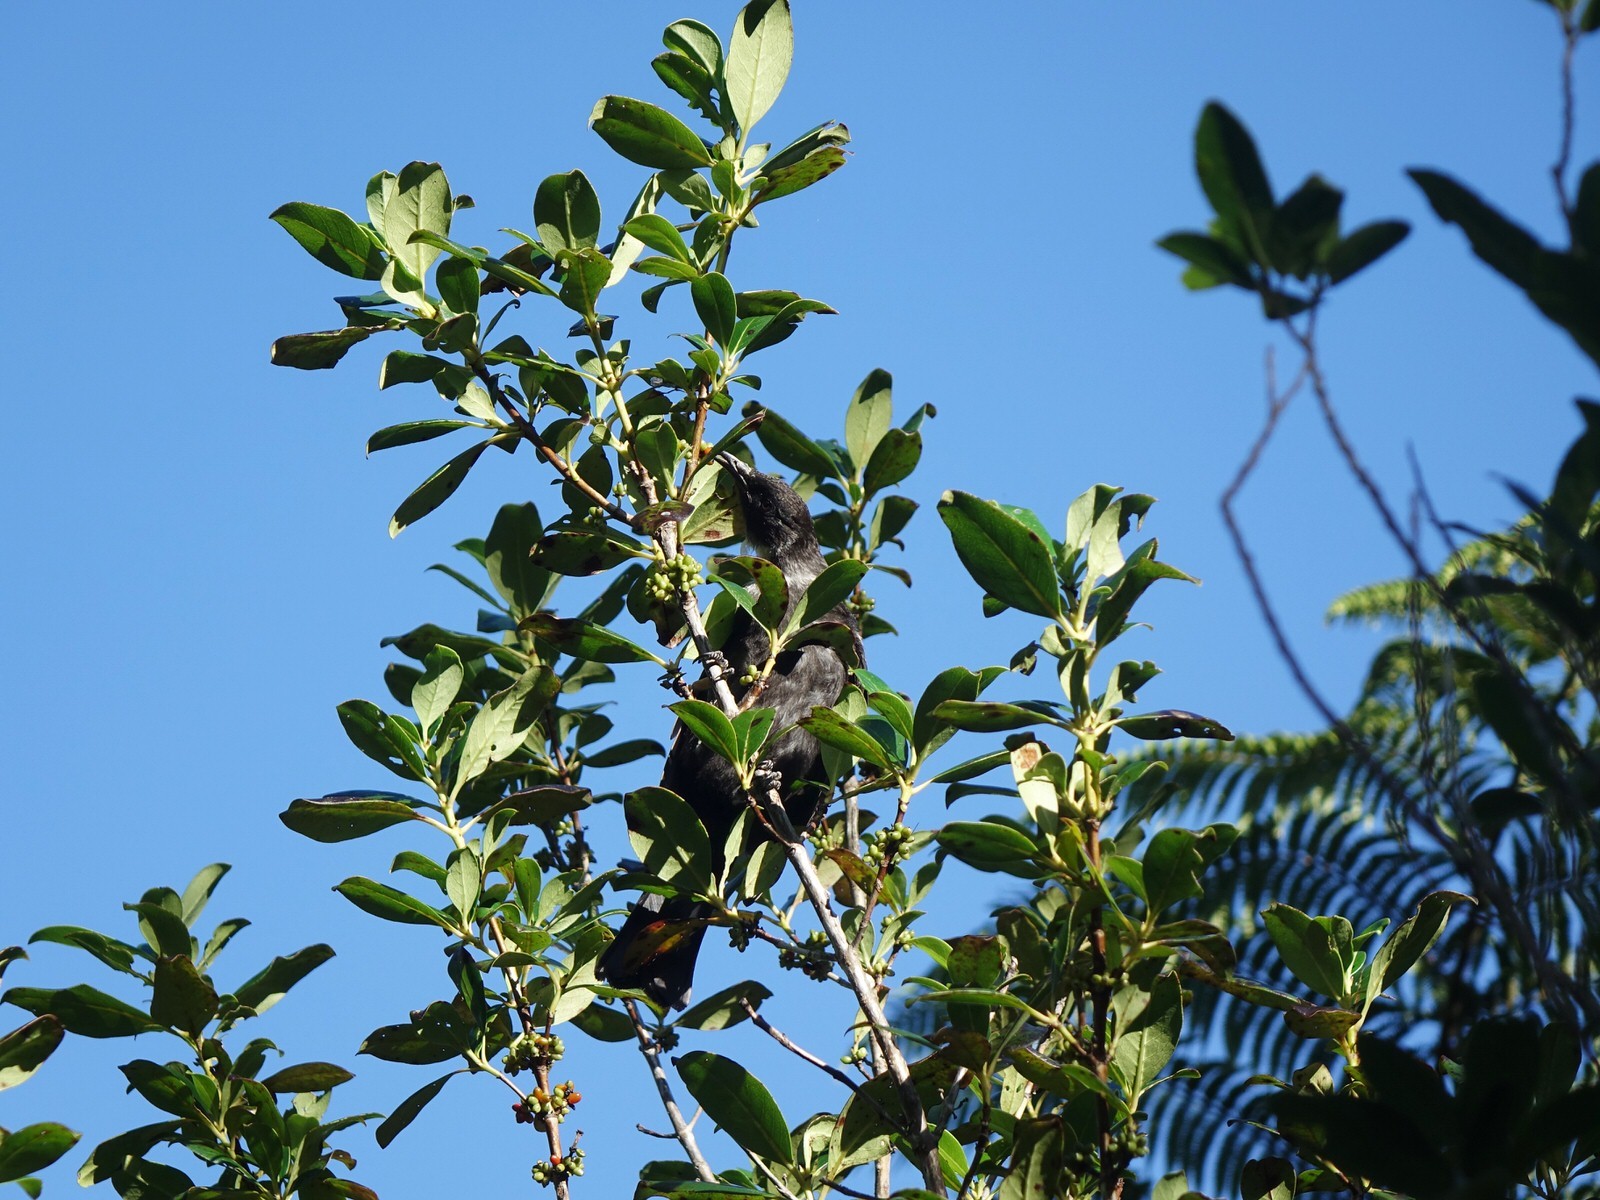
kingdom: Animalia
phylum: Chordata
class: Aves
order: Passeriformes
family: Meliphagidae
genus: Prosthemadera
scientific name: Prosthemadera novaeseelandiae
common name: Tui
